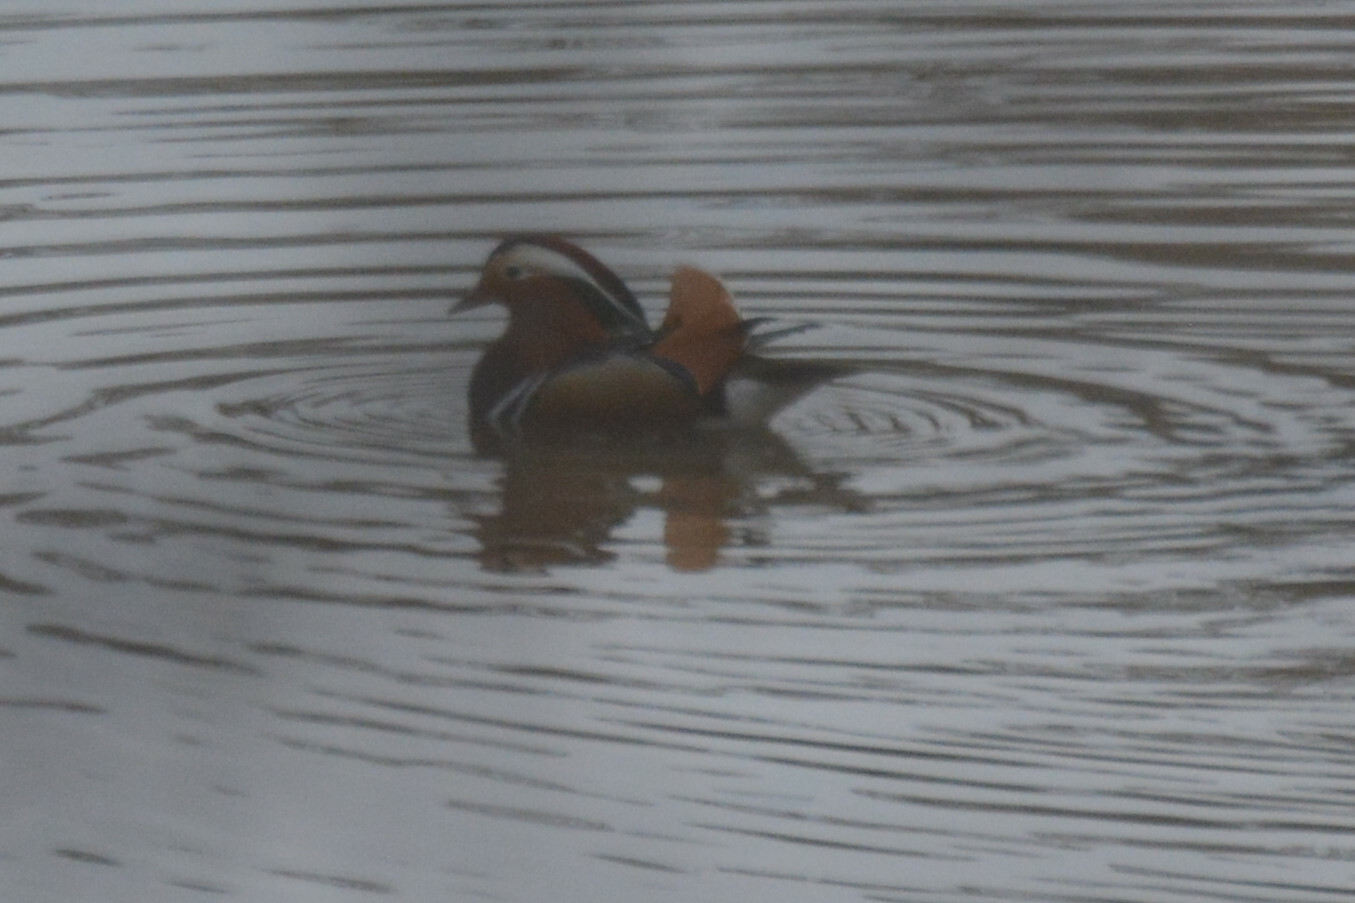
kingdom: Animalia
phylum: Chordata
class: Aves
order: Anseriformes
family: Anatidae
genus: Aix
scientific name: Aix galericulata
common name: Mandarin duck
